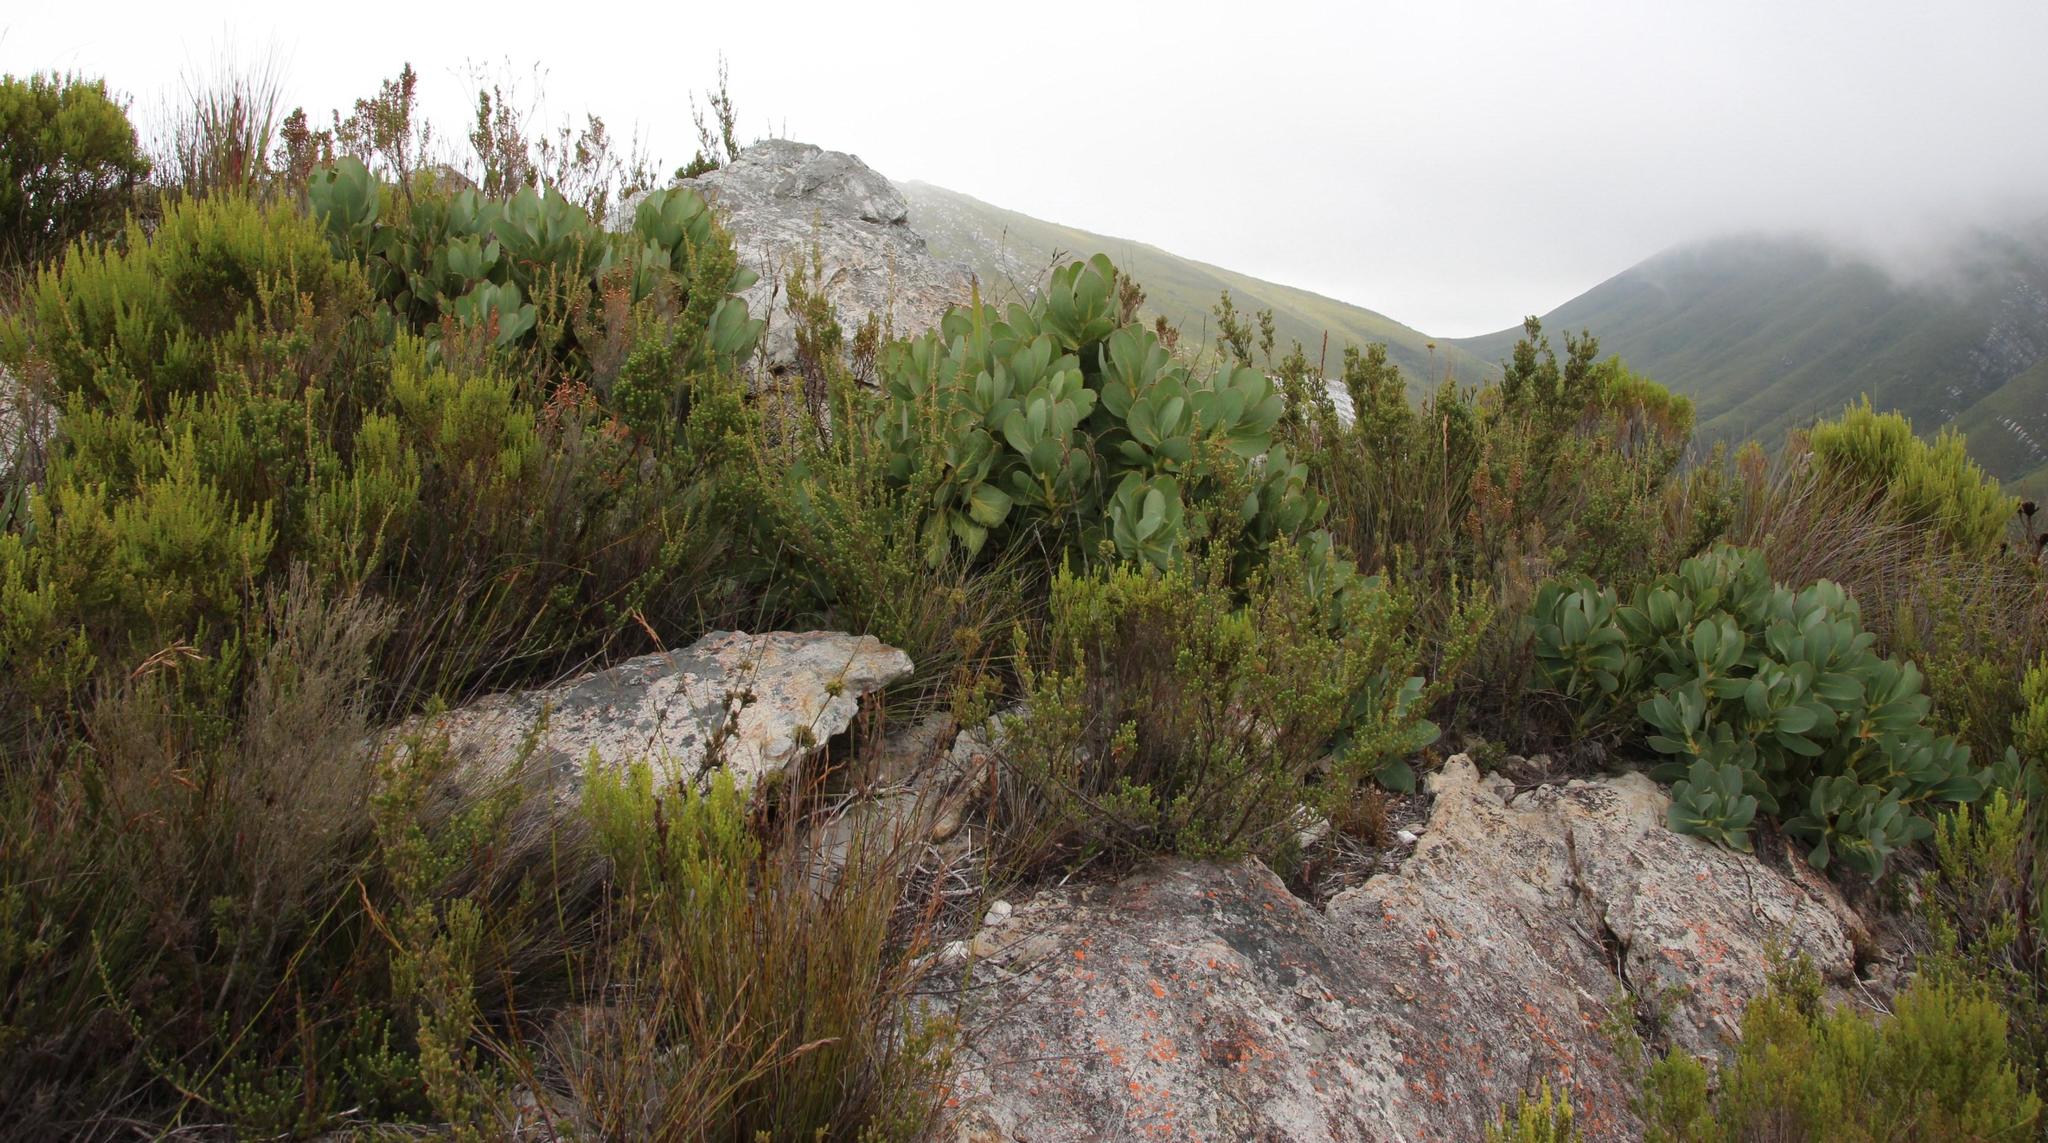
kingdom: Plantae
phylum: Tracheophyta
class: Magnoliopsida
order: Proteales
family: Proteaceae
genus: Protea
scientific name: Protea grandiceps
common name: Red sugarbush
